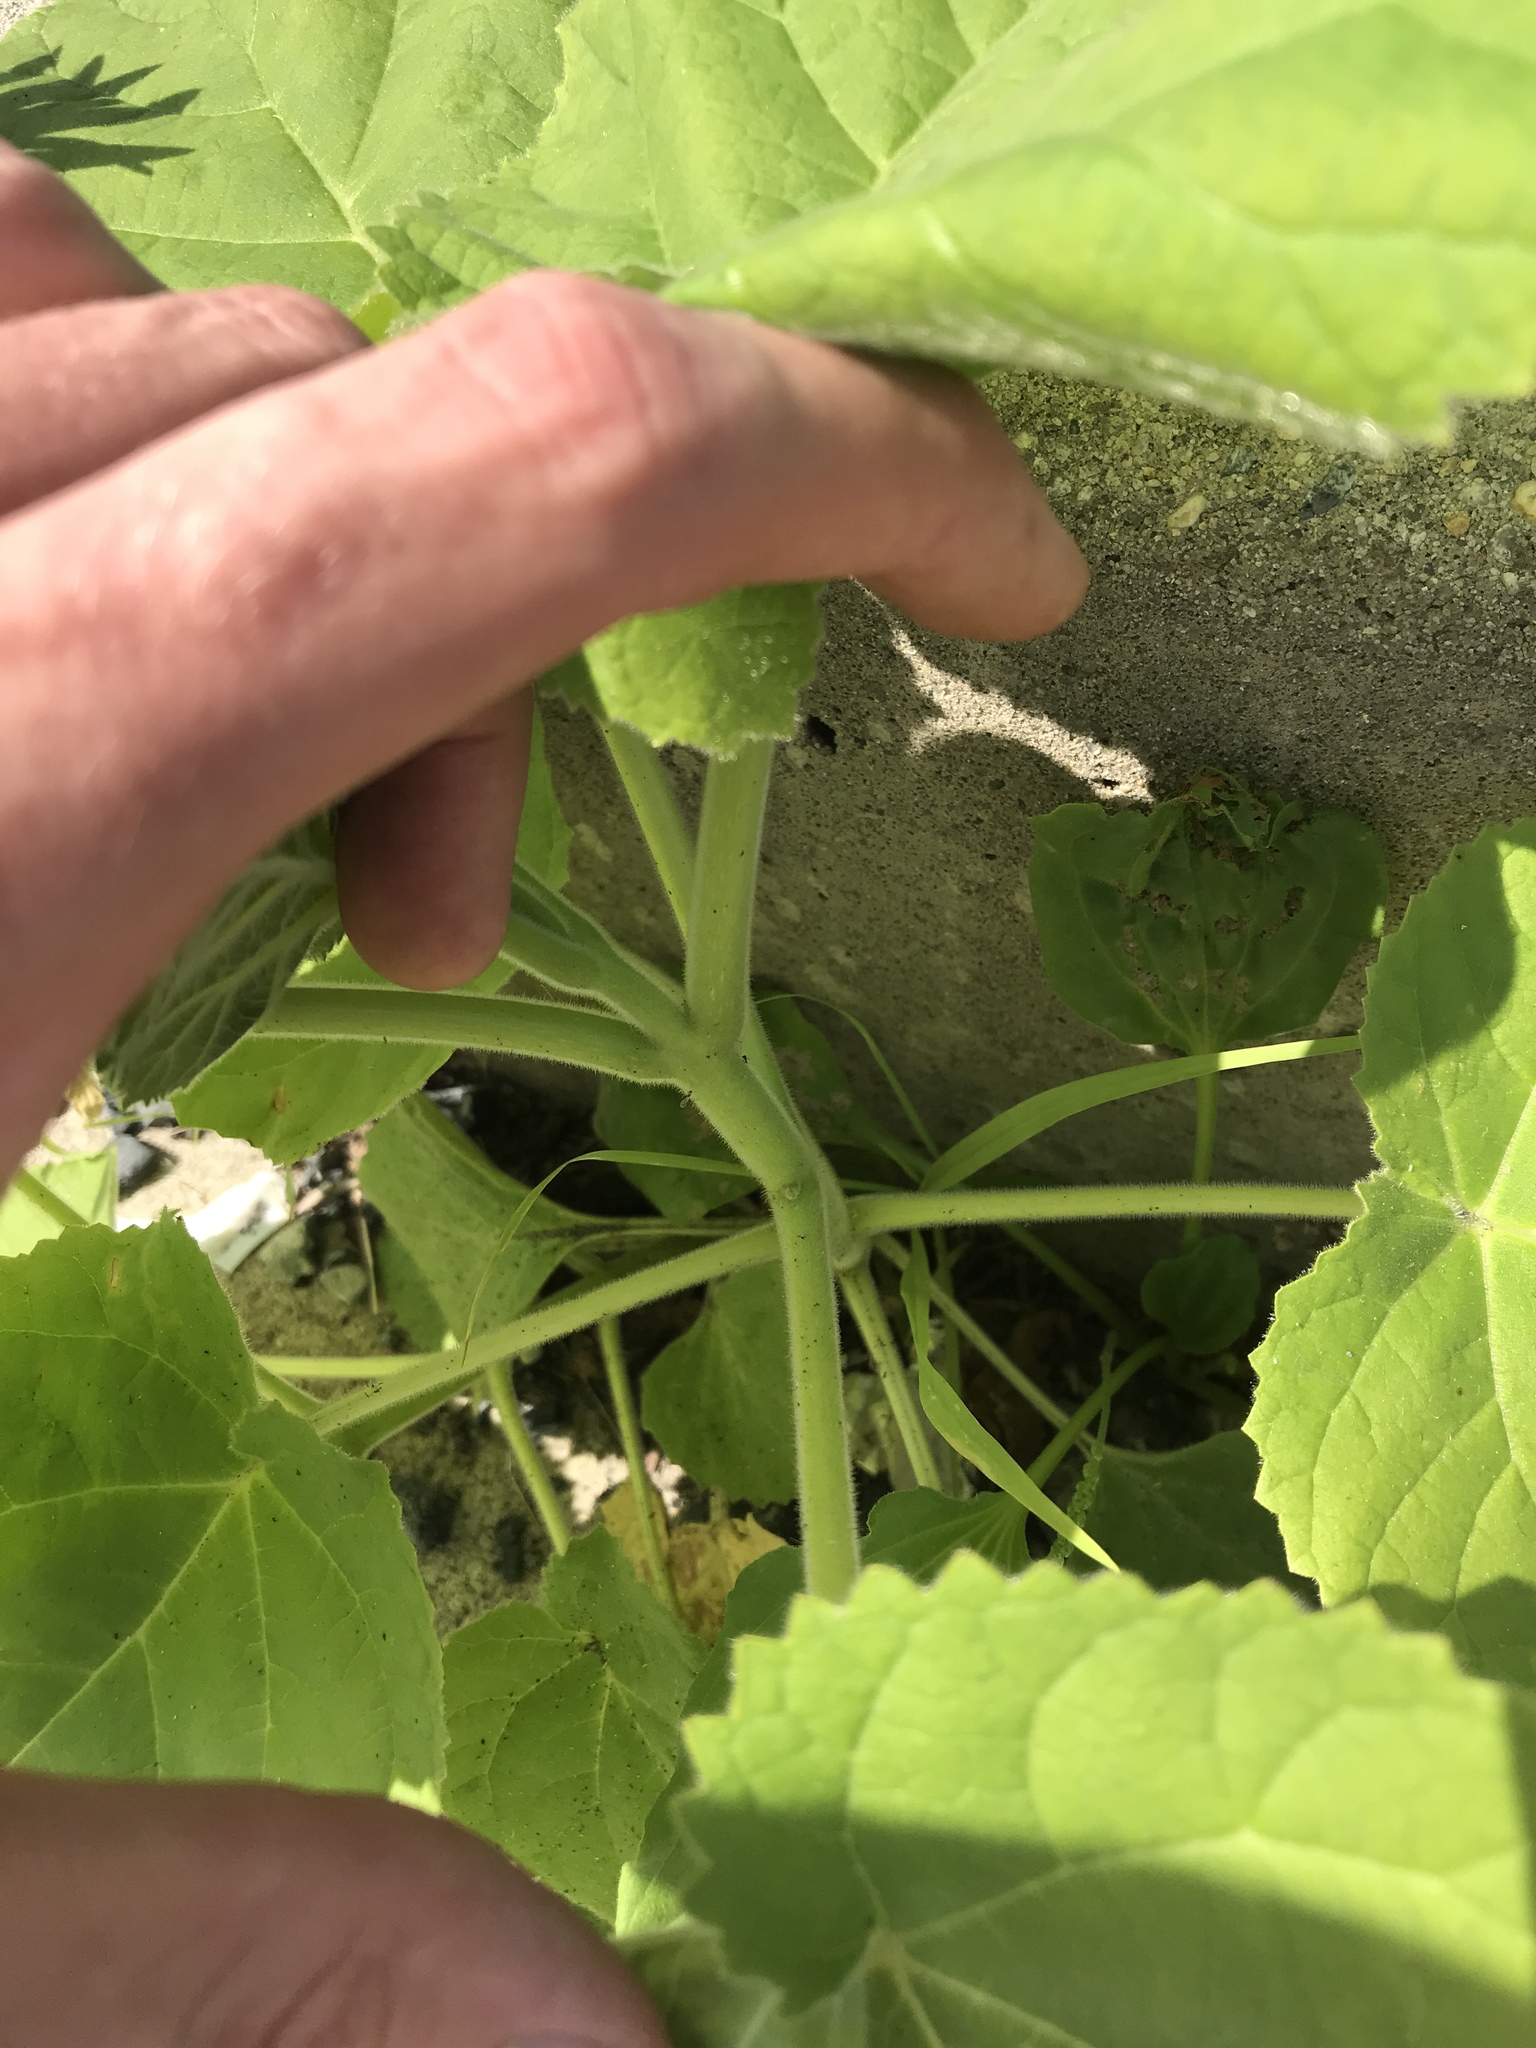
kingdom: Plantae
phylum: Tracheophyta
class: Magnoliopsida
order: Lamiales
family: Paulowniaceae
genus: Paulownia
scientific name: Paulownia tomentosa
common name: Foxglove-tree
